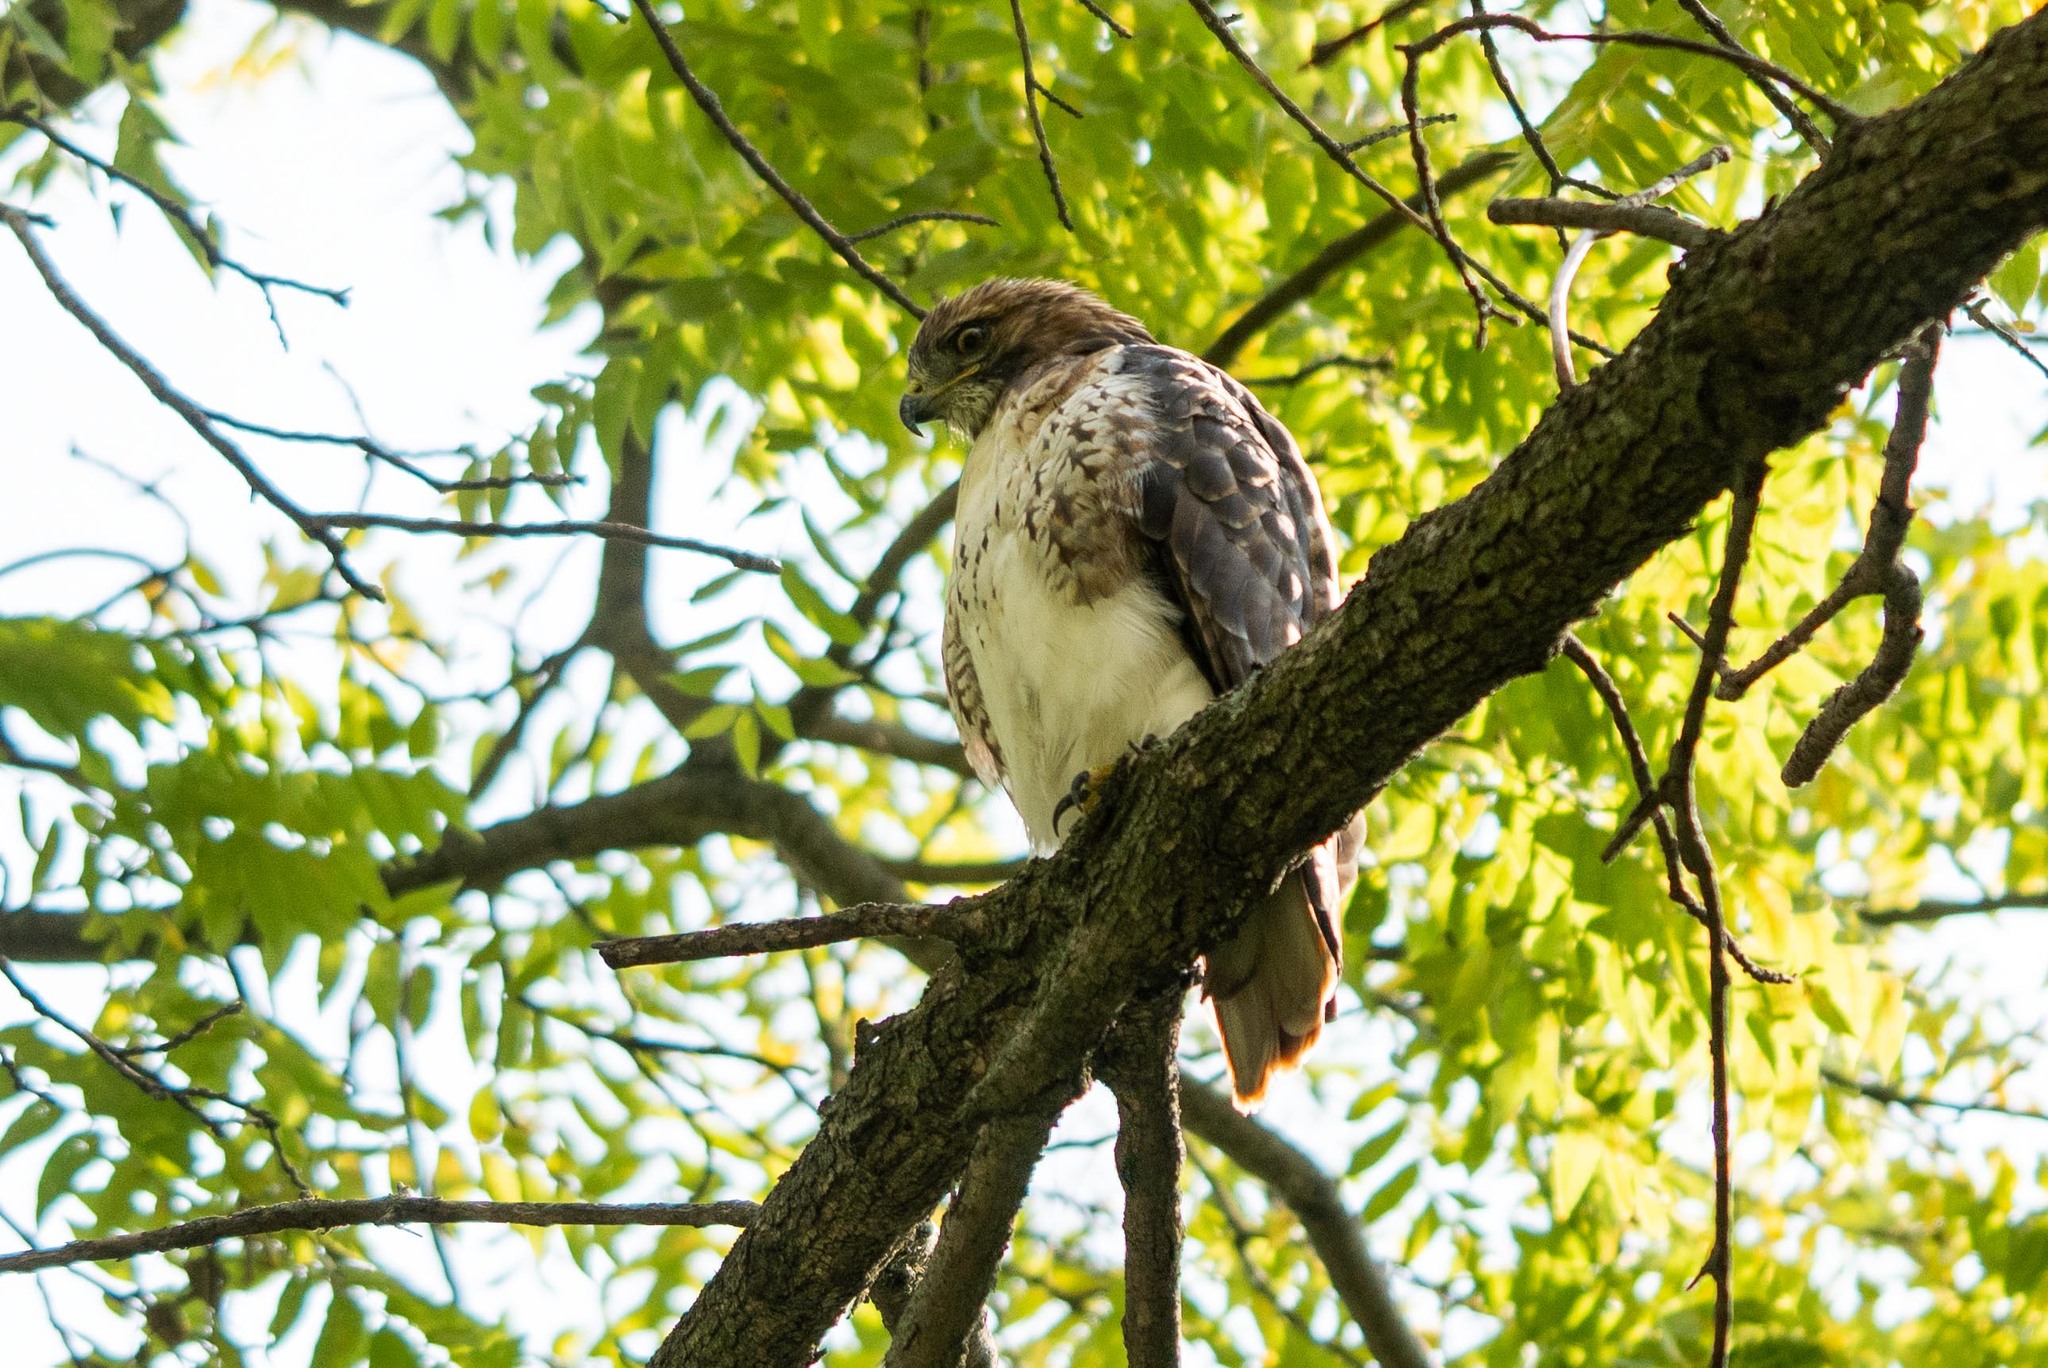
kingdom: Animalia
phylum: Chordata
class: Aves
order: Accipitriformes
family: Accipitridae
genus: Buteo
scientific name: Buteo jamaicensis
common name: Red-tailed hawk
